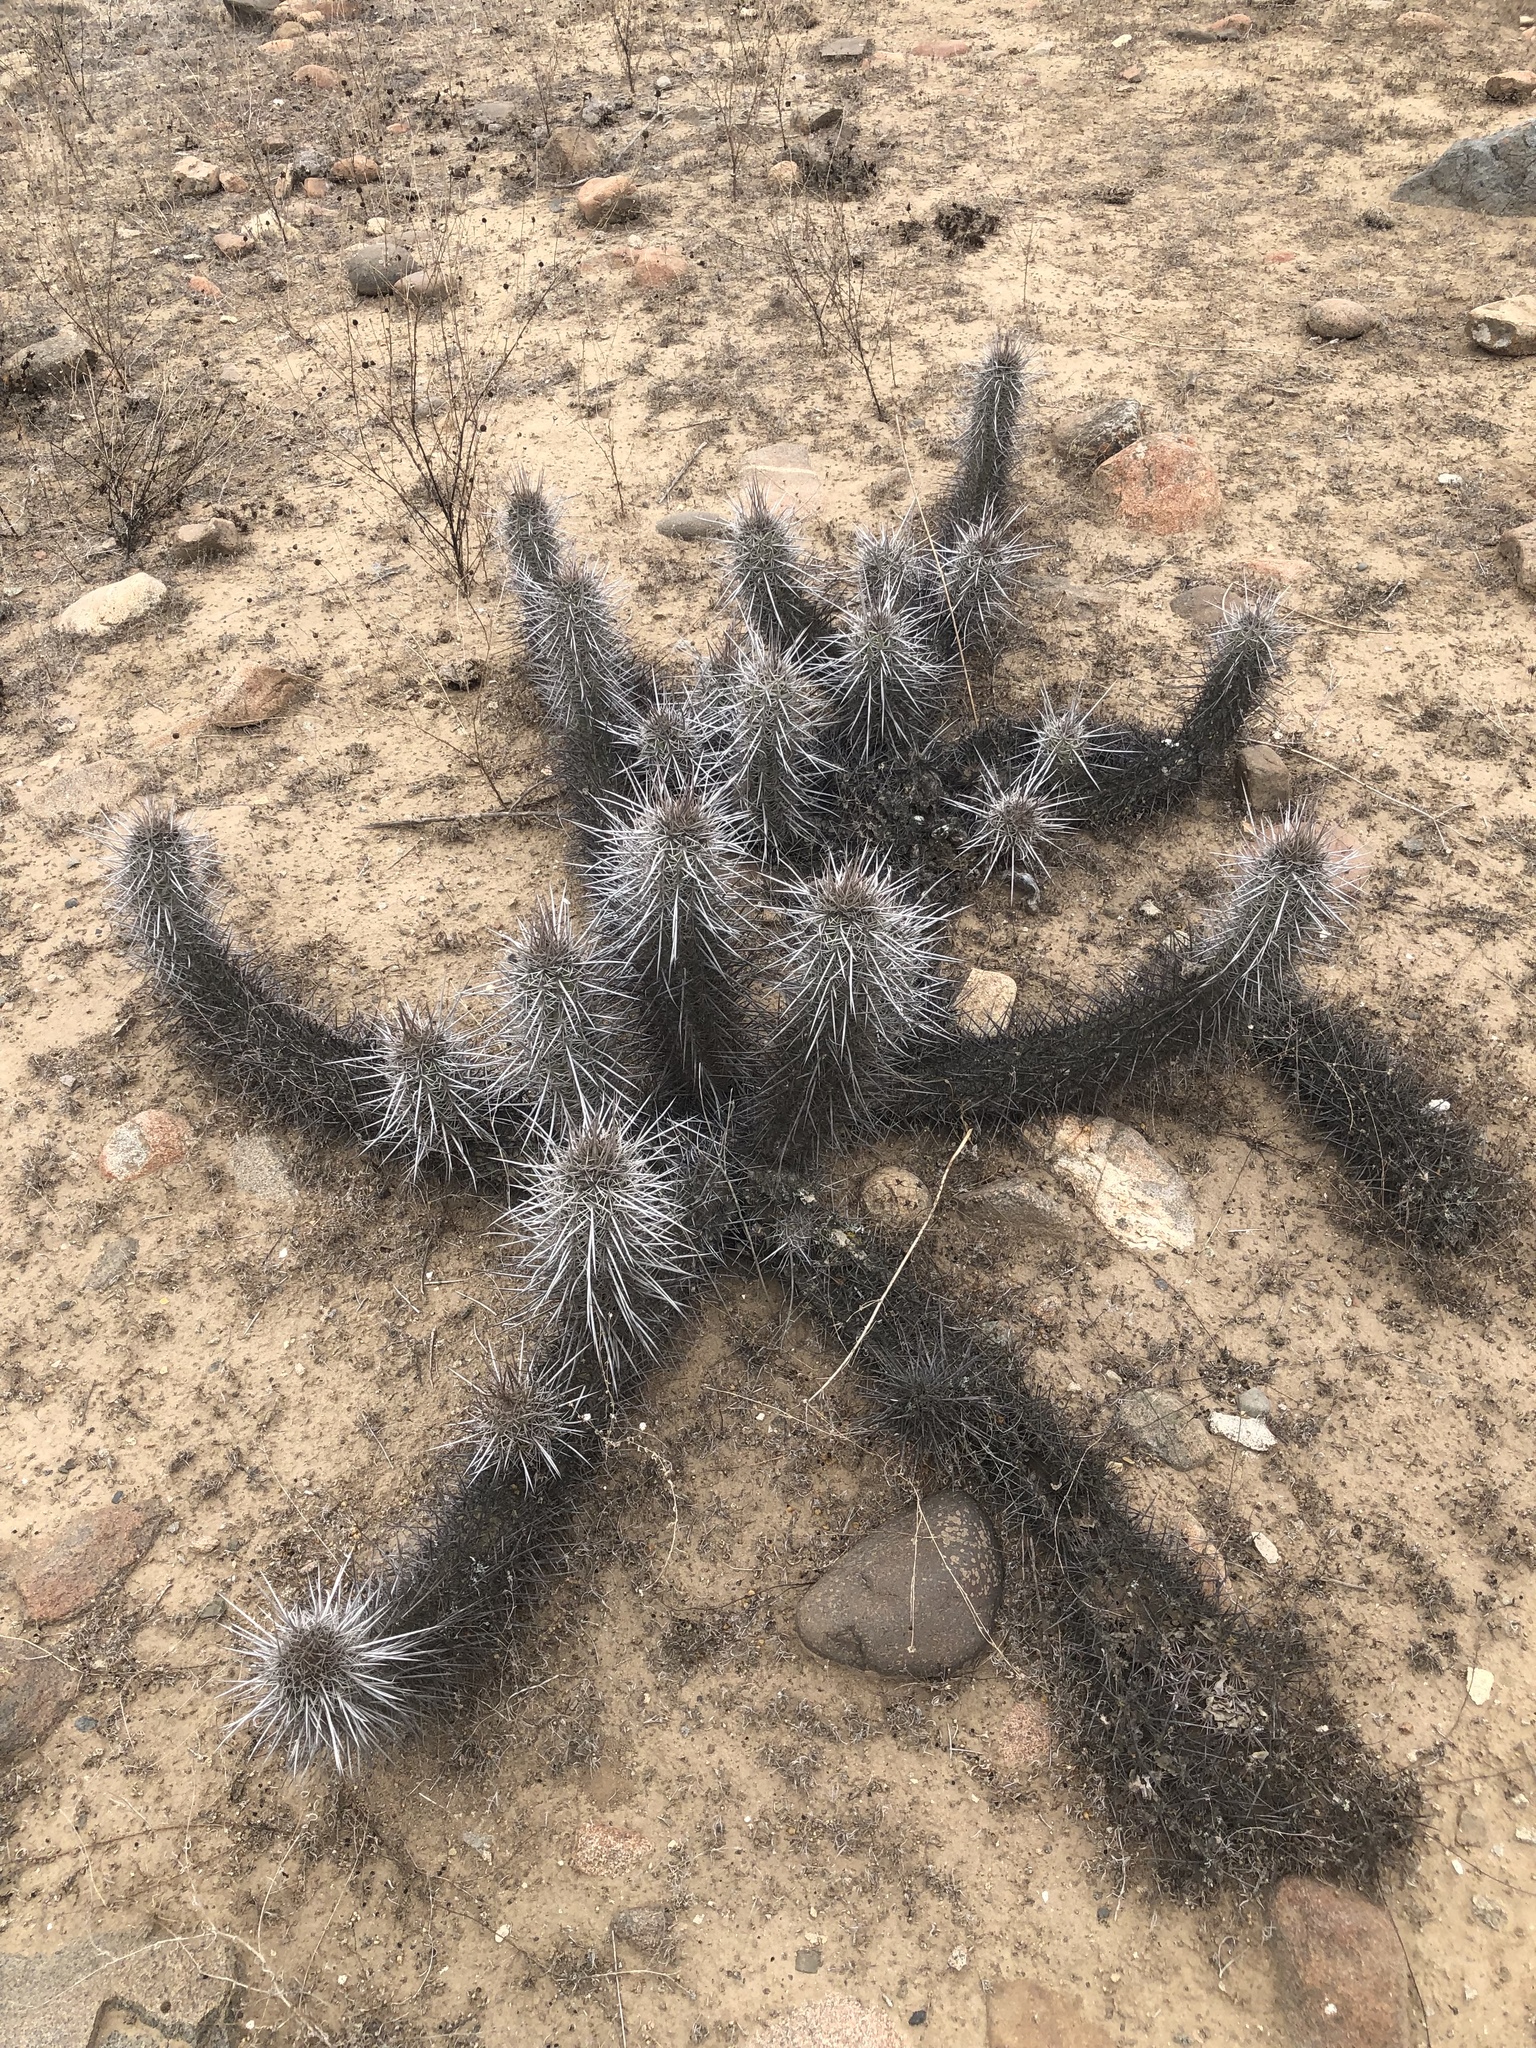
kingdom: Plantae
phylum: Tracheophyta
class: Magnoliopsida
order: Caryophyllales
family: Cactaceae
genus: Leucostele
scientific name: Leucostele deserticola
